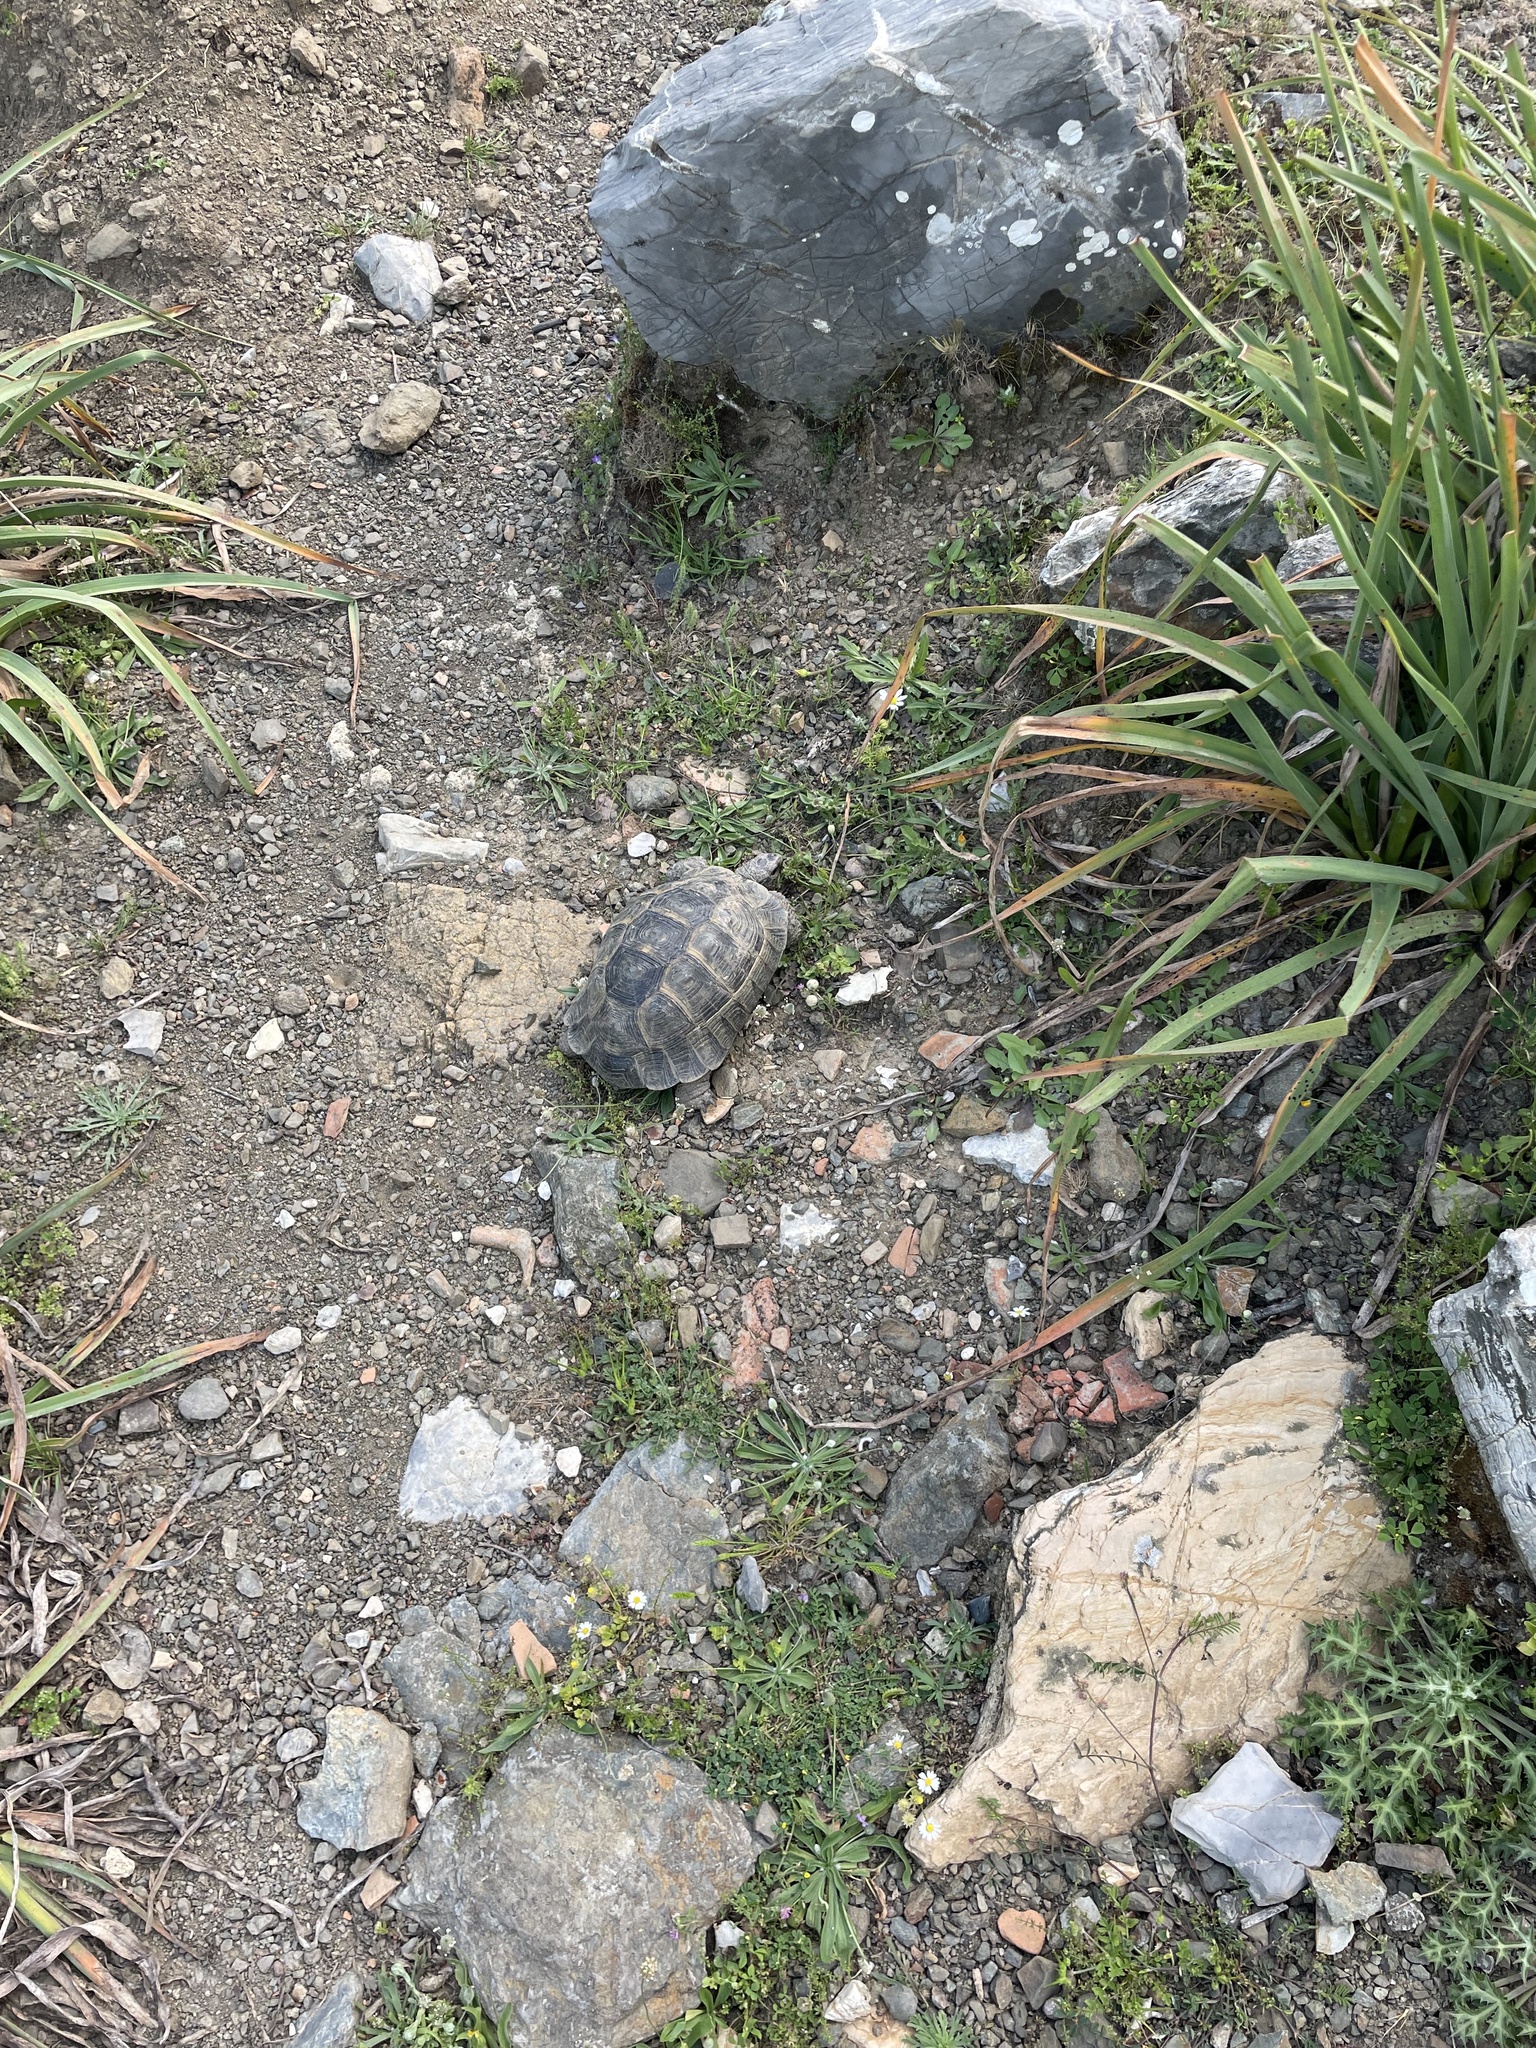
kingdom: Animalia
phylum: Chordata
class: Testudines
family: Testudinidae
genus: Testudo
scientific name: Testudo graeca
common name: Common tortoise
